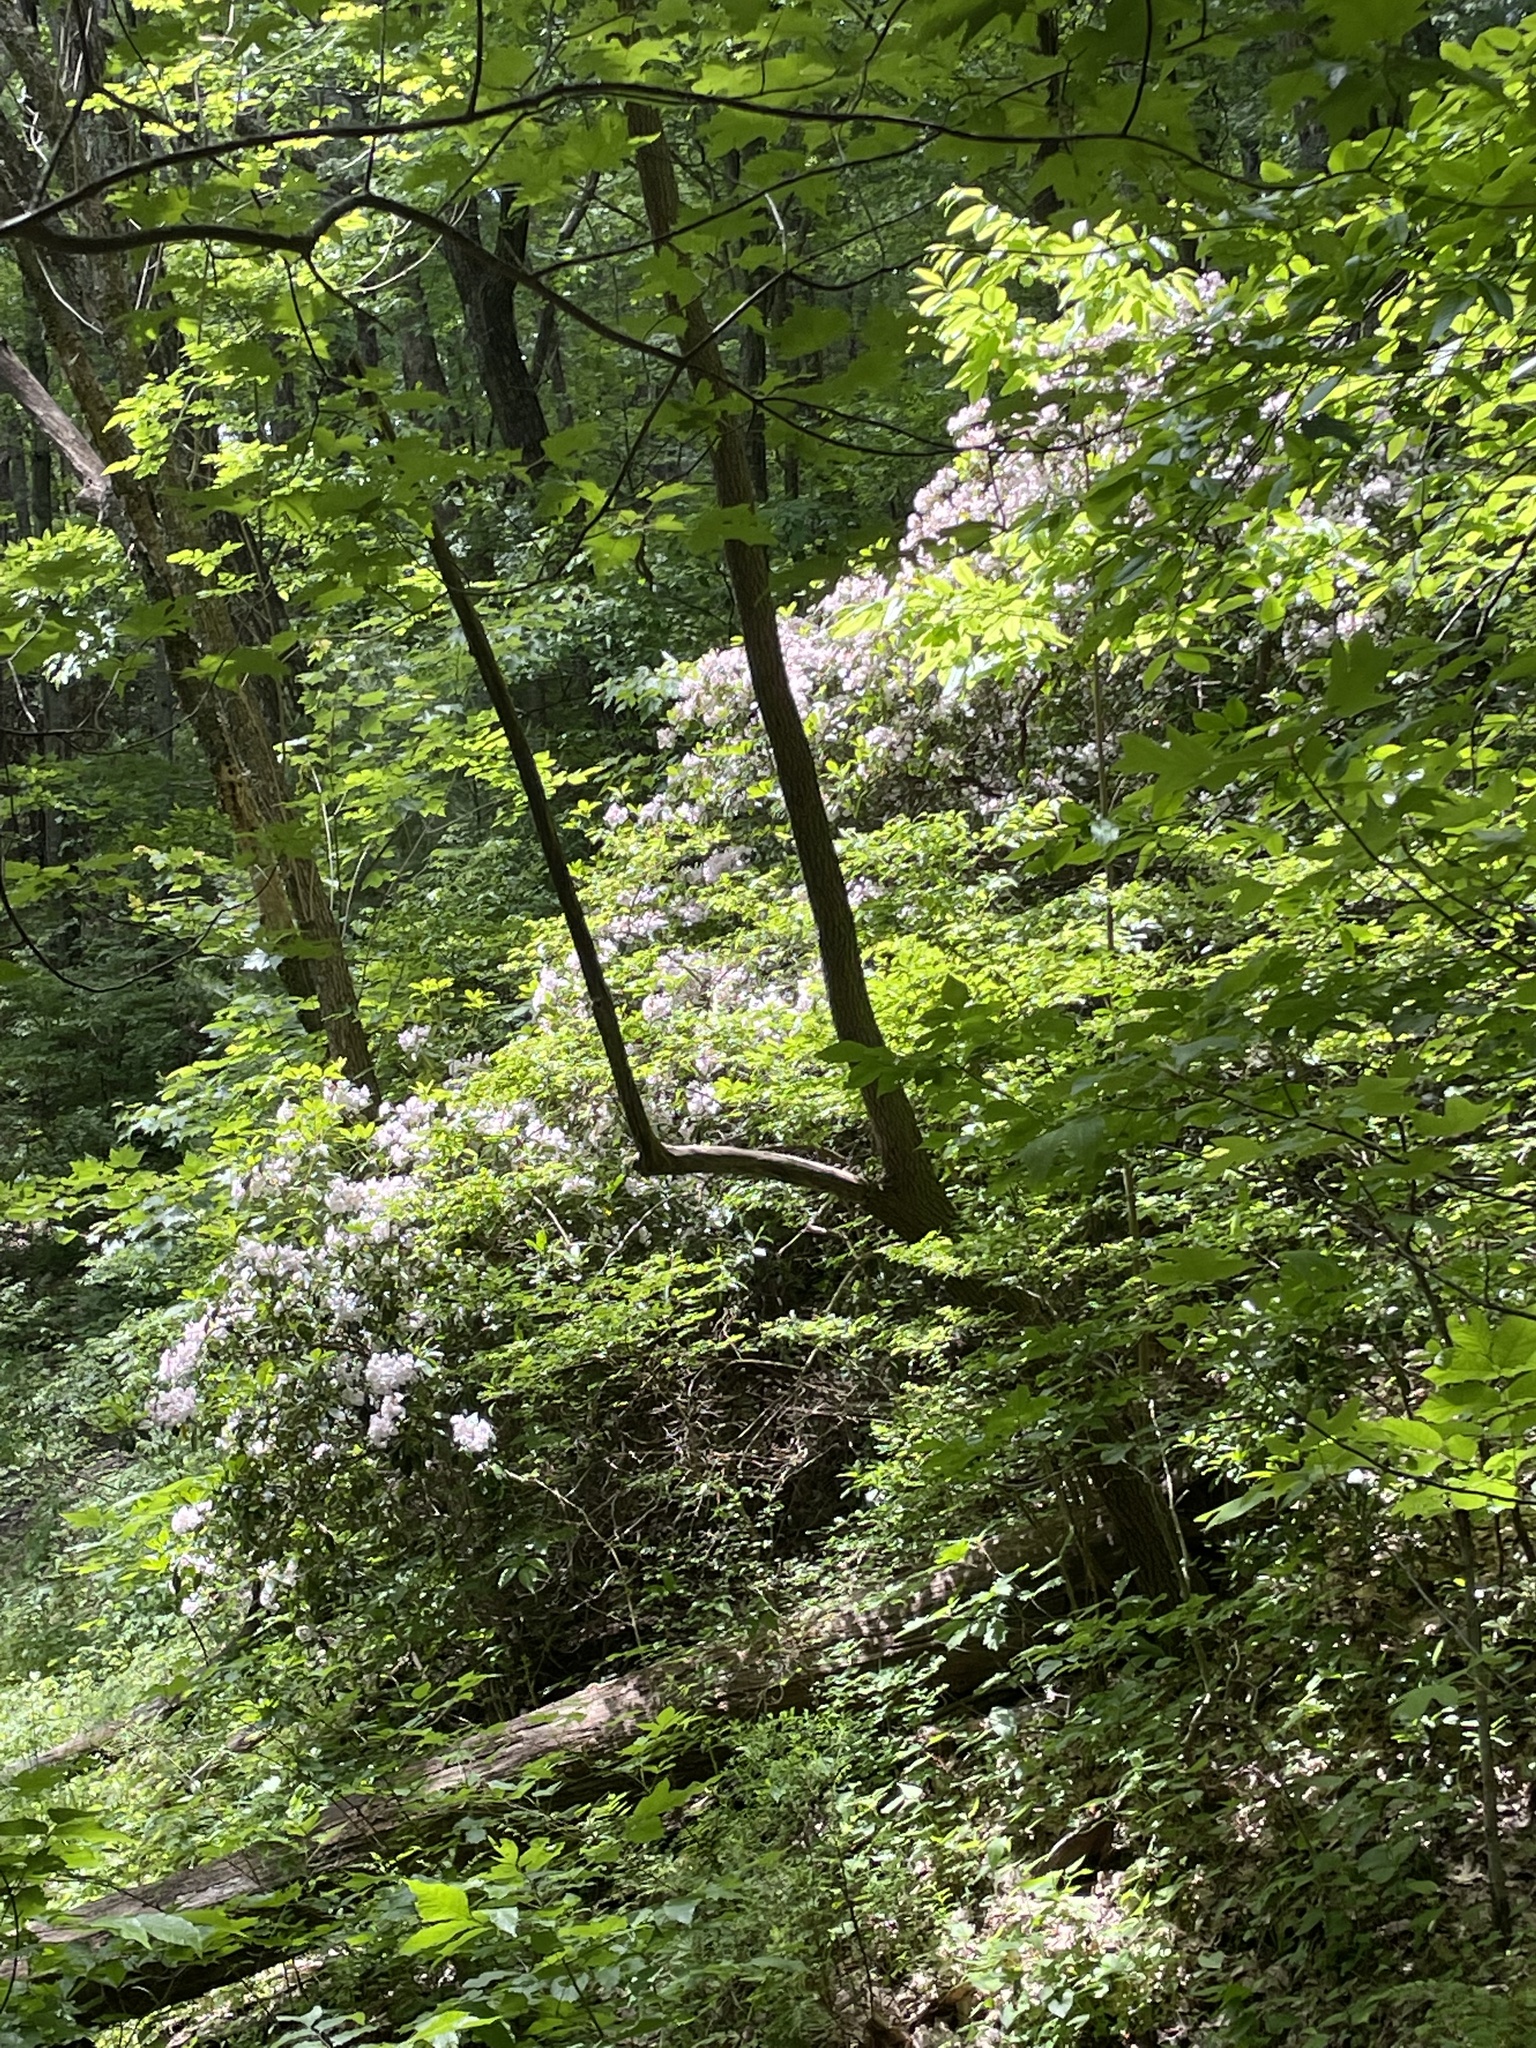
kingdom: Plantae
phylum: Tracheophyta
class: Magnoliopsida
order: Ericales
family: Ericaceae
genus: Kalmia
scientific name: Kalmia latifolia
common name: Mountain-laurel
